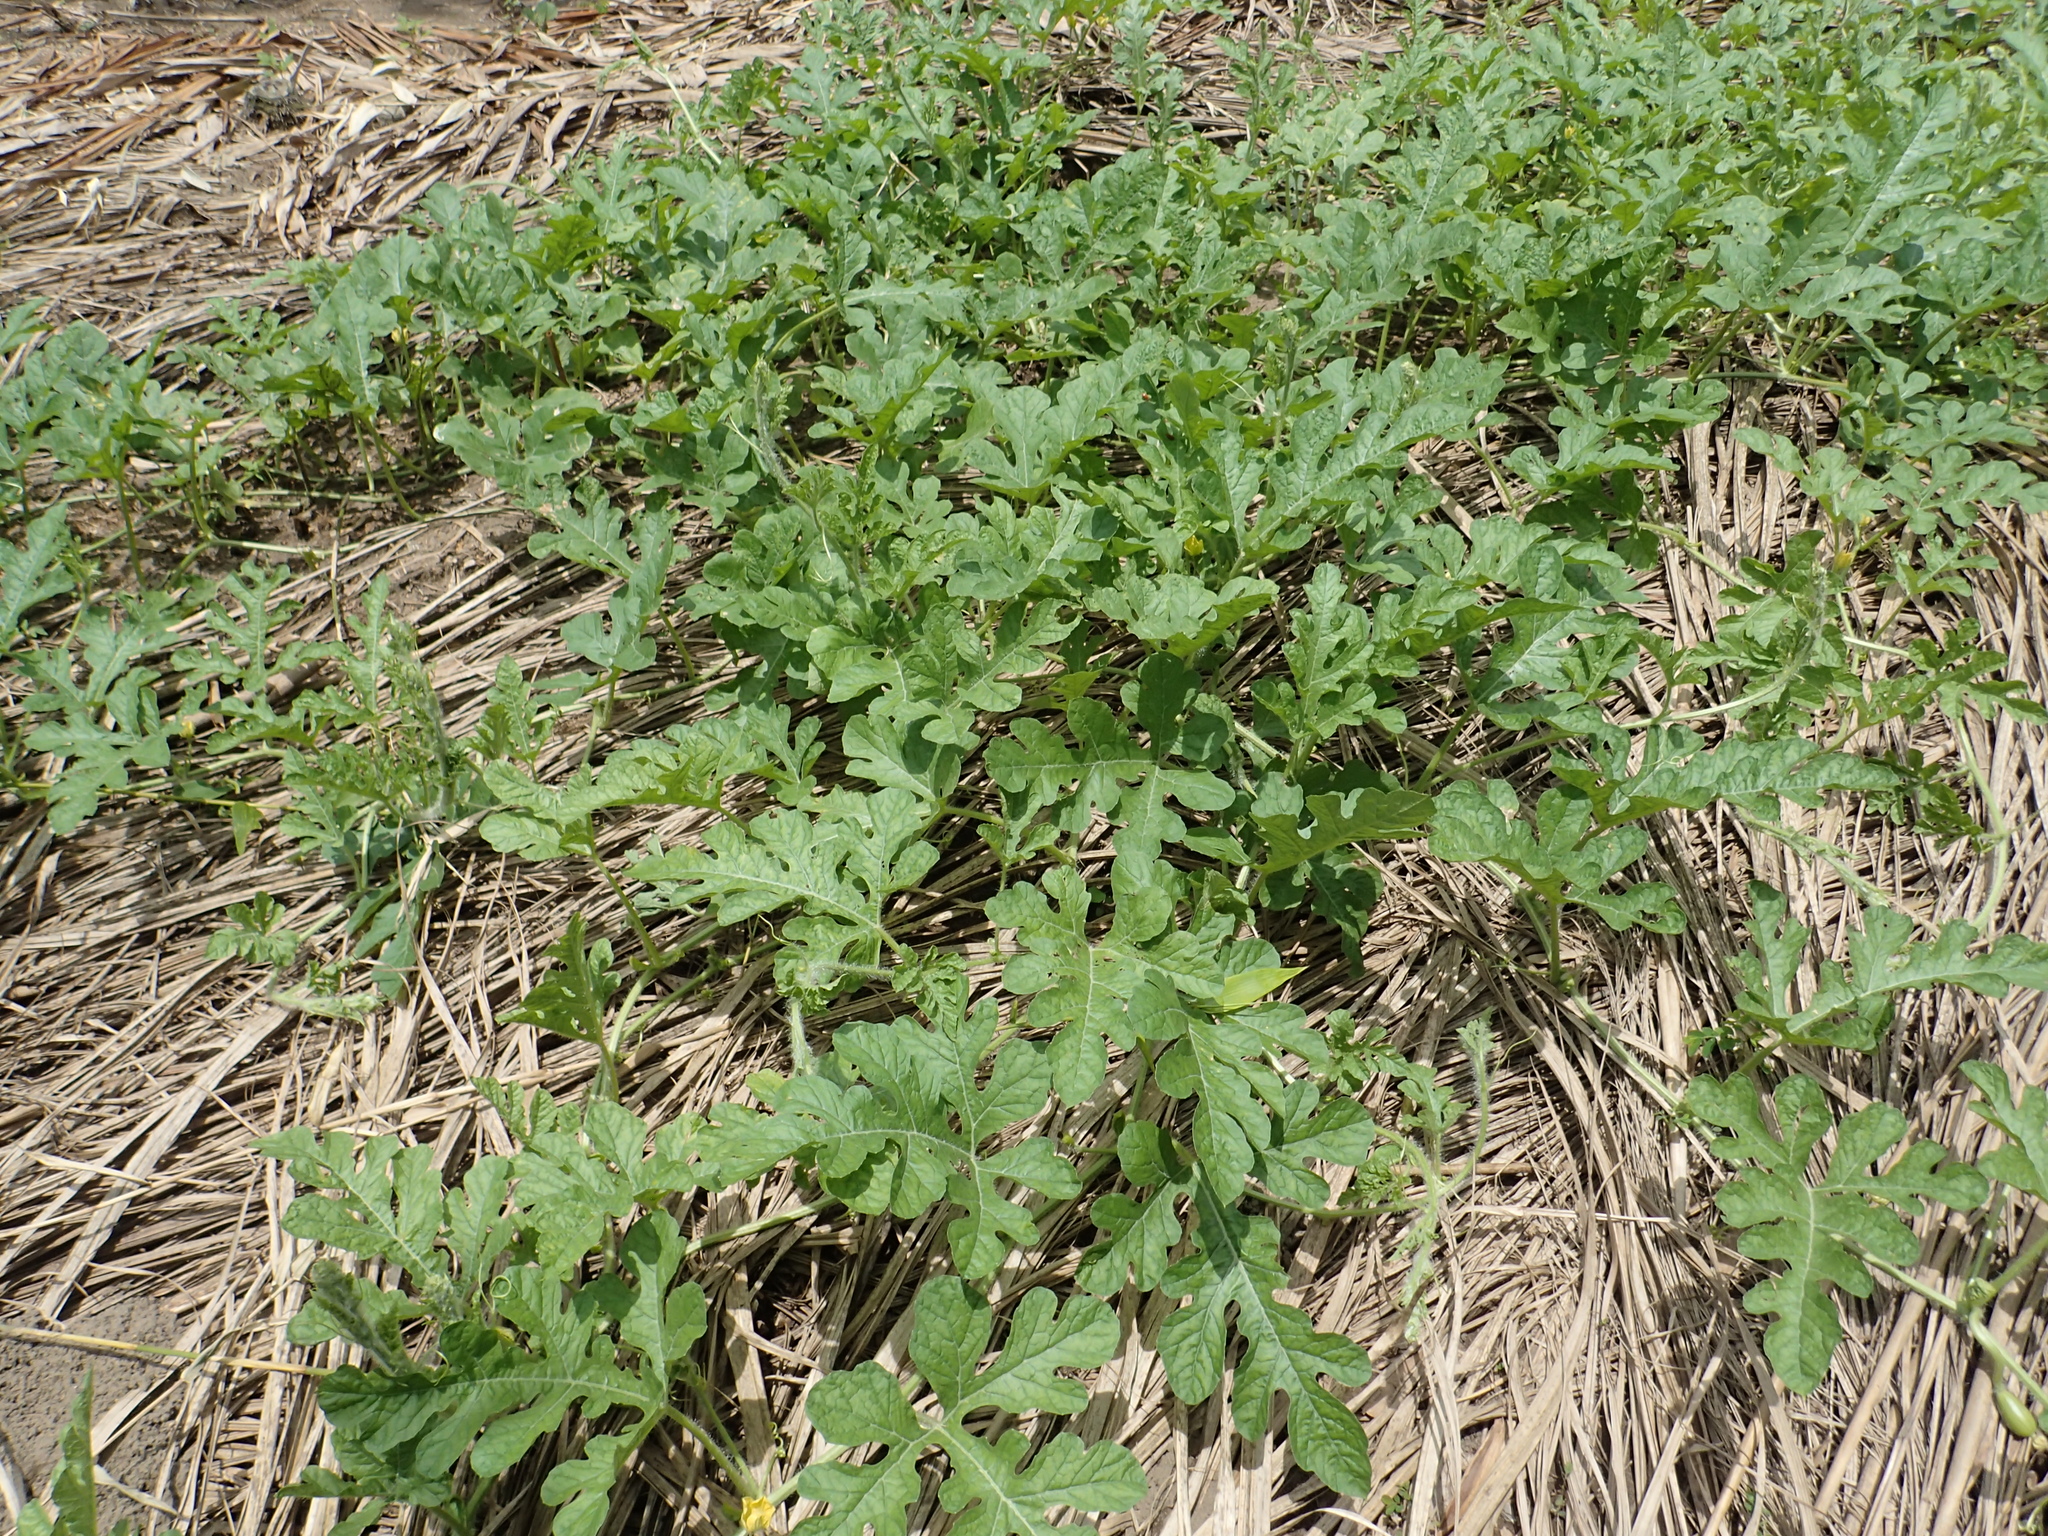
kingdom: Plantae
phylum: Tracheophyta
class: Magnoliopsida
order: Cucurbitales
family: Cucurbitaceae
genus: Citrullus
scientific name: Citrullus lanatus
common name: Watermelon
